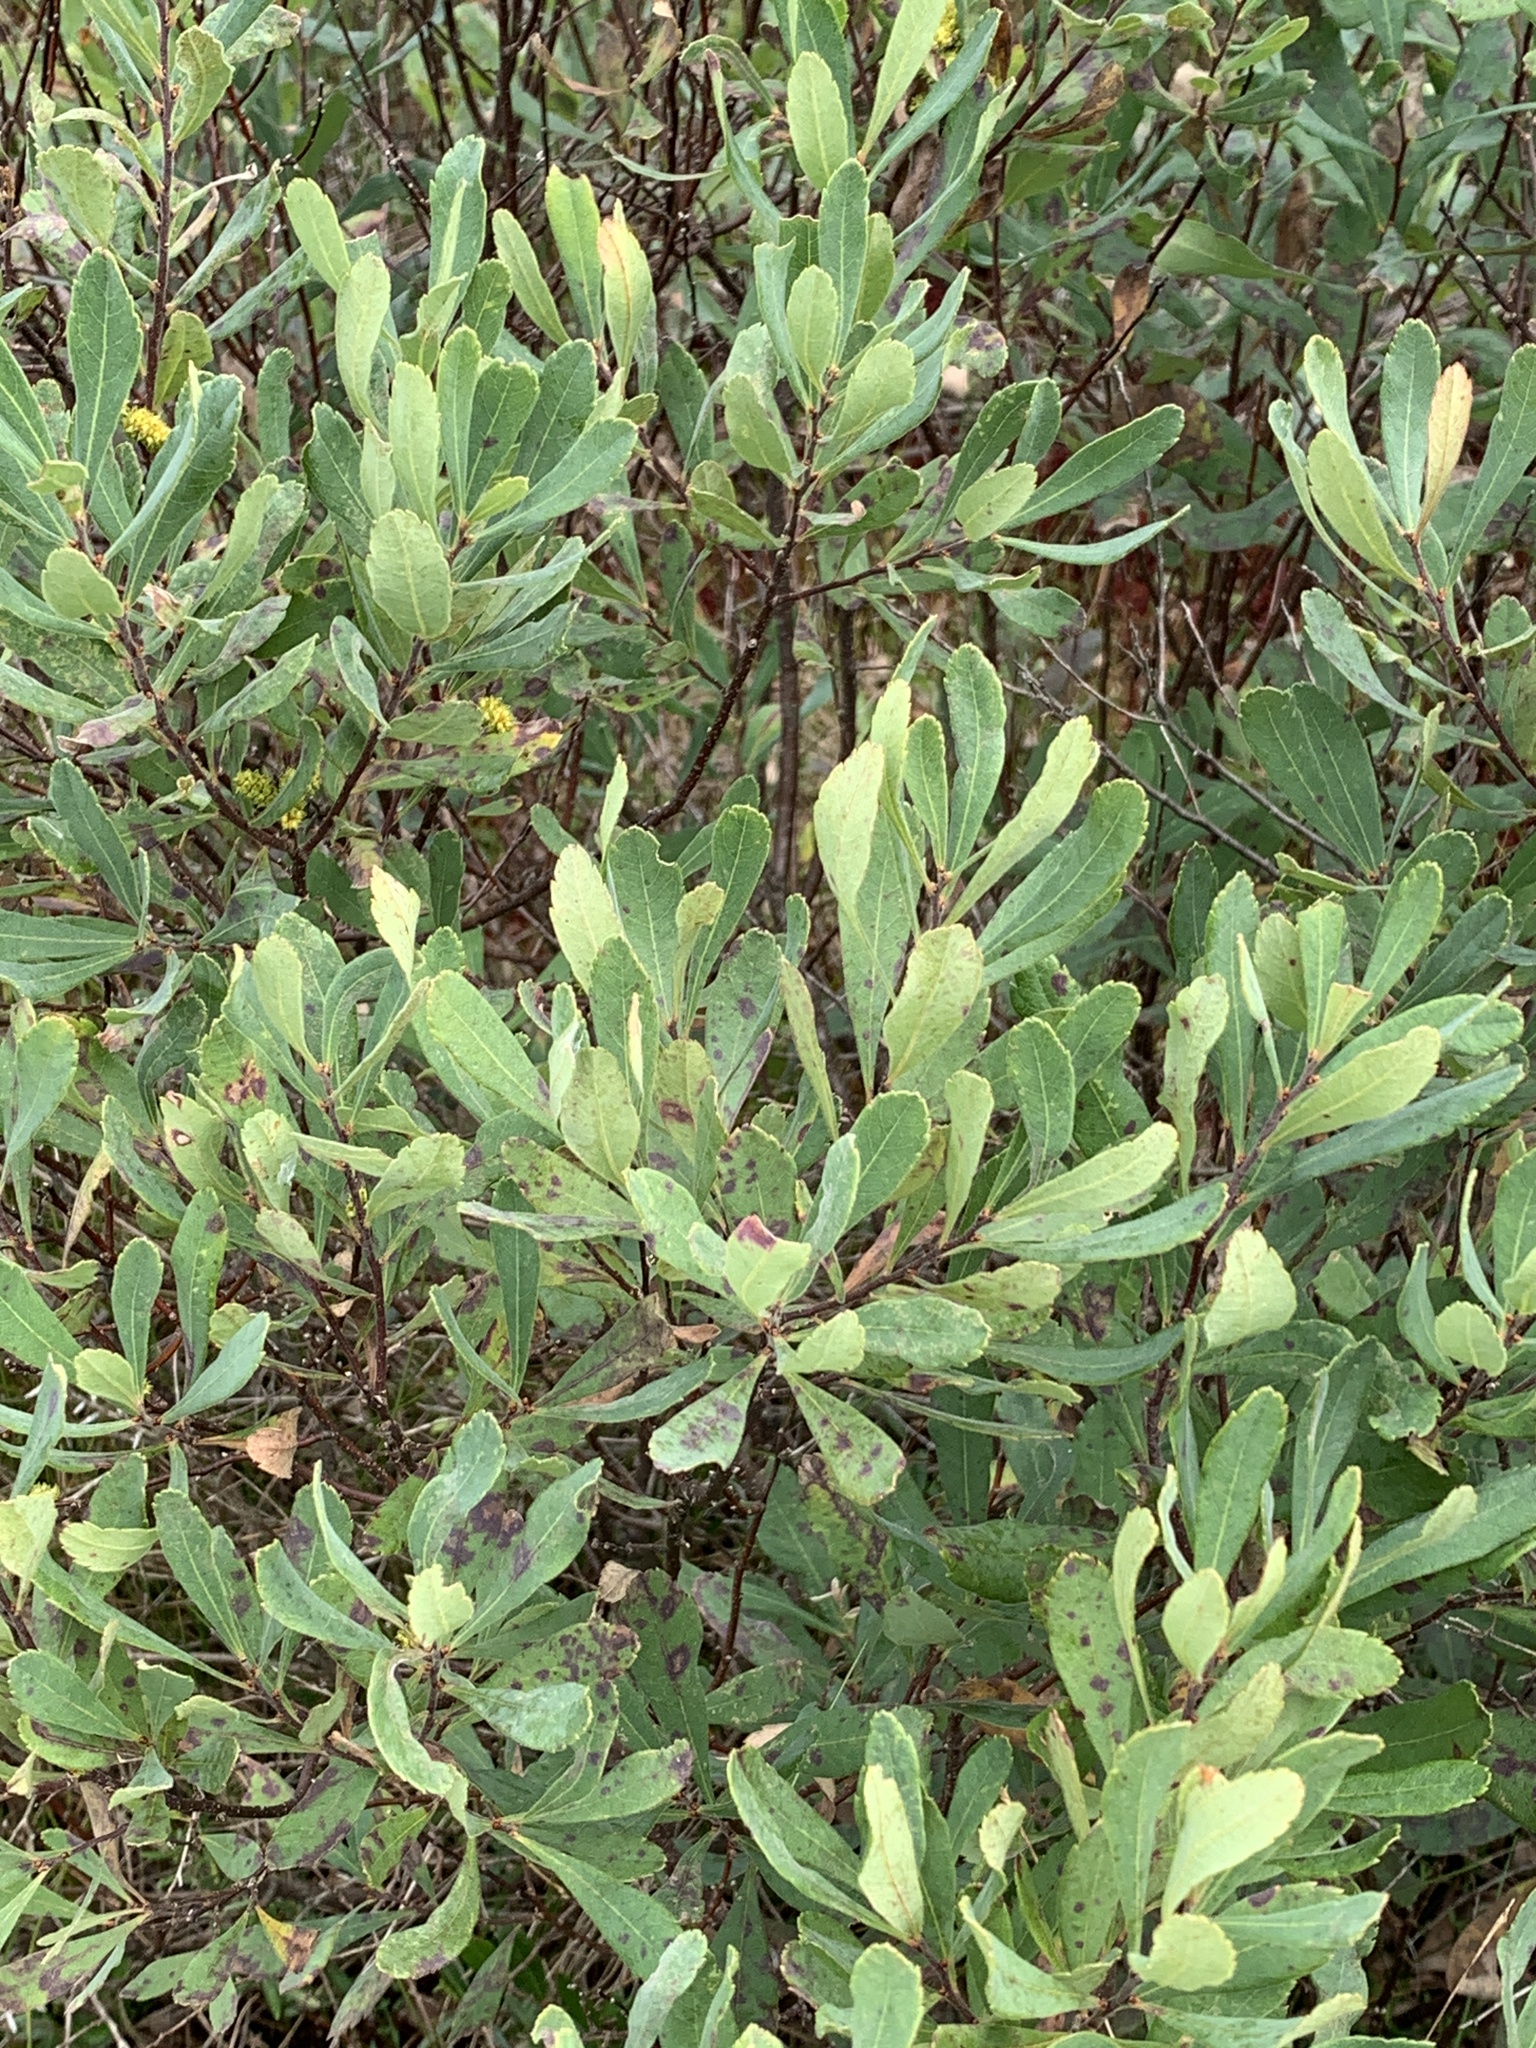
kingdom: Plantae
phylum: Tracheophyta
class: Magnoliopsida
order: Fagales
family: Myricaceae
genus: Myrica
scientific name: Myrica gale
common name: Sweet gale
